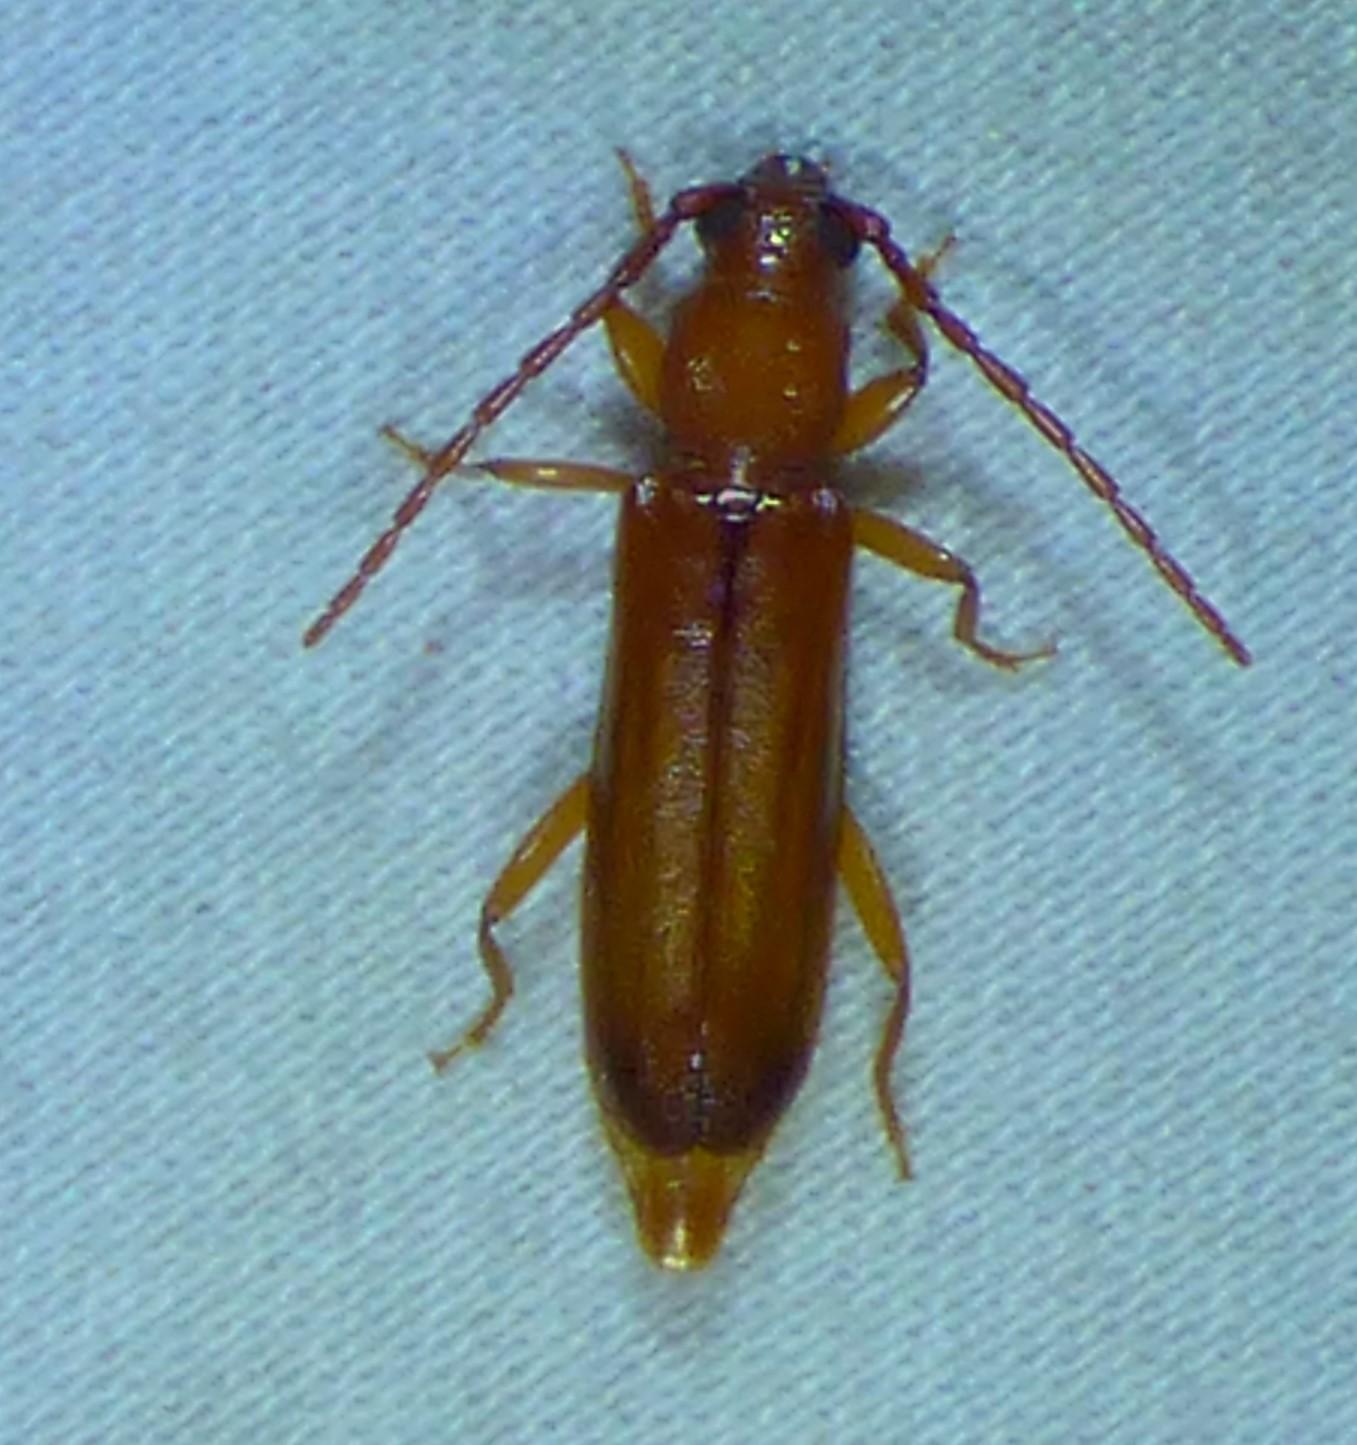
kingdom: Animalia
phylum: Arthropoda
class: Insecta
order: Coleoptera
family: Cerambycidae
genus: Smodicum
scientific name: Smodicum cucujiforme
